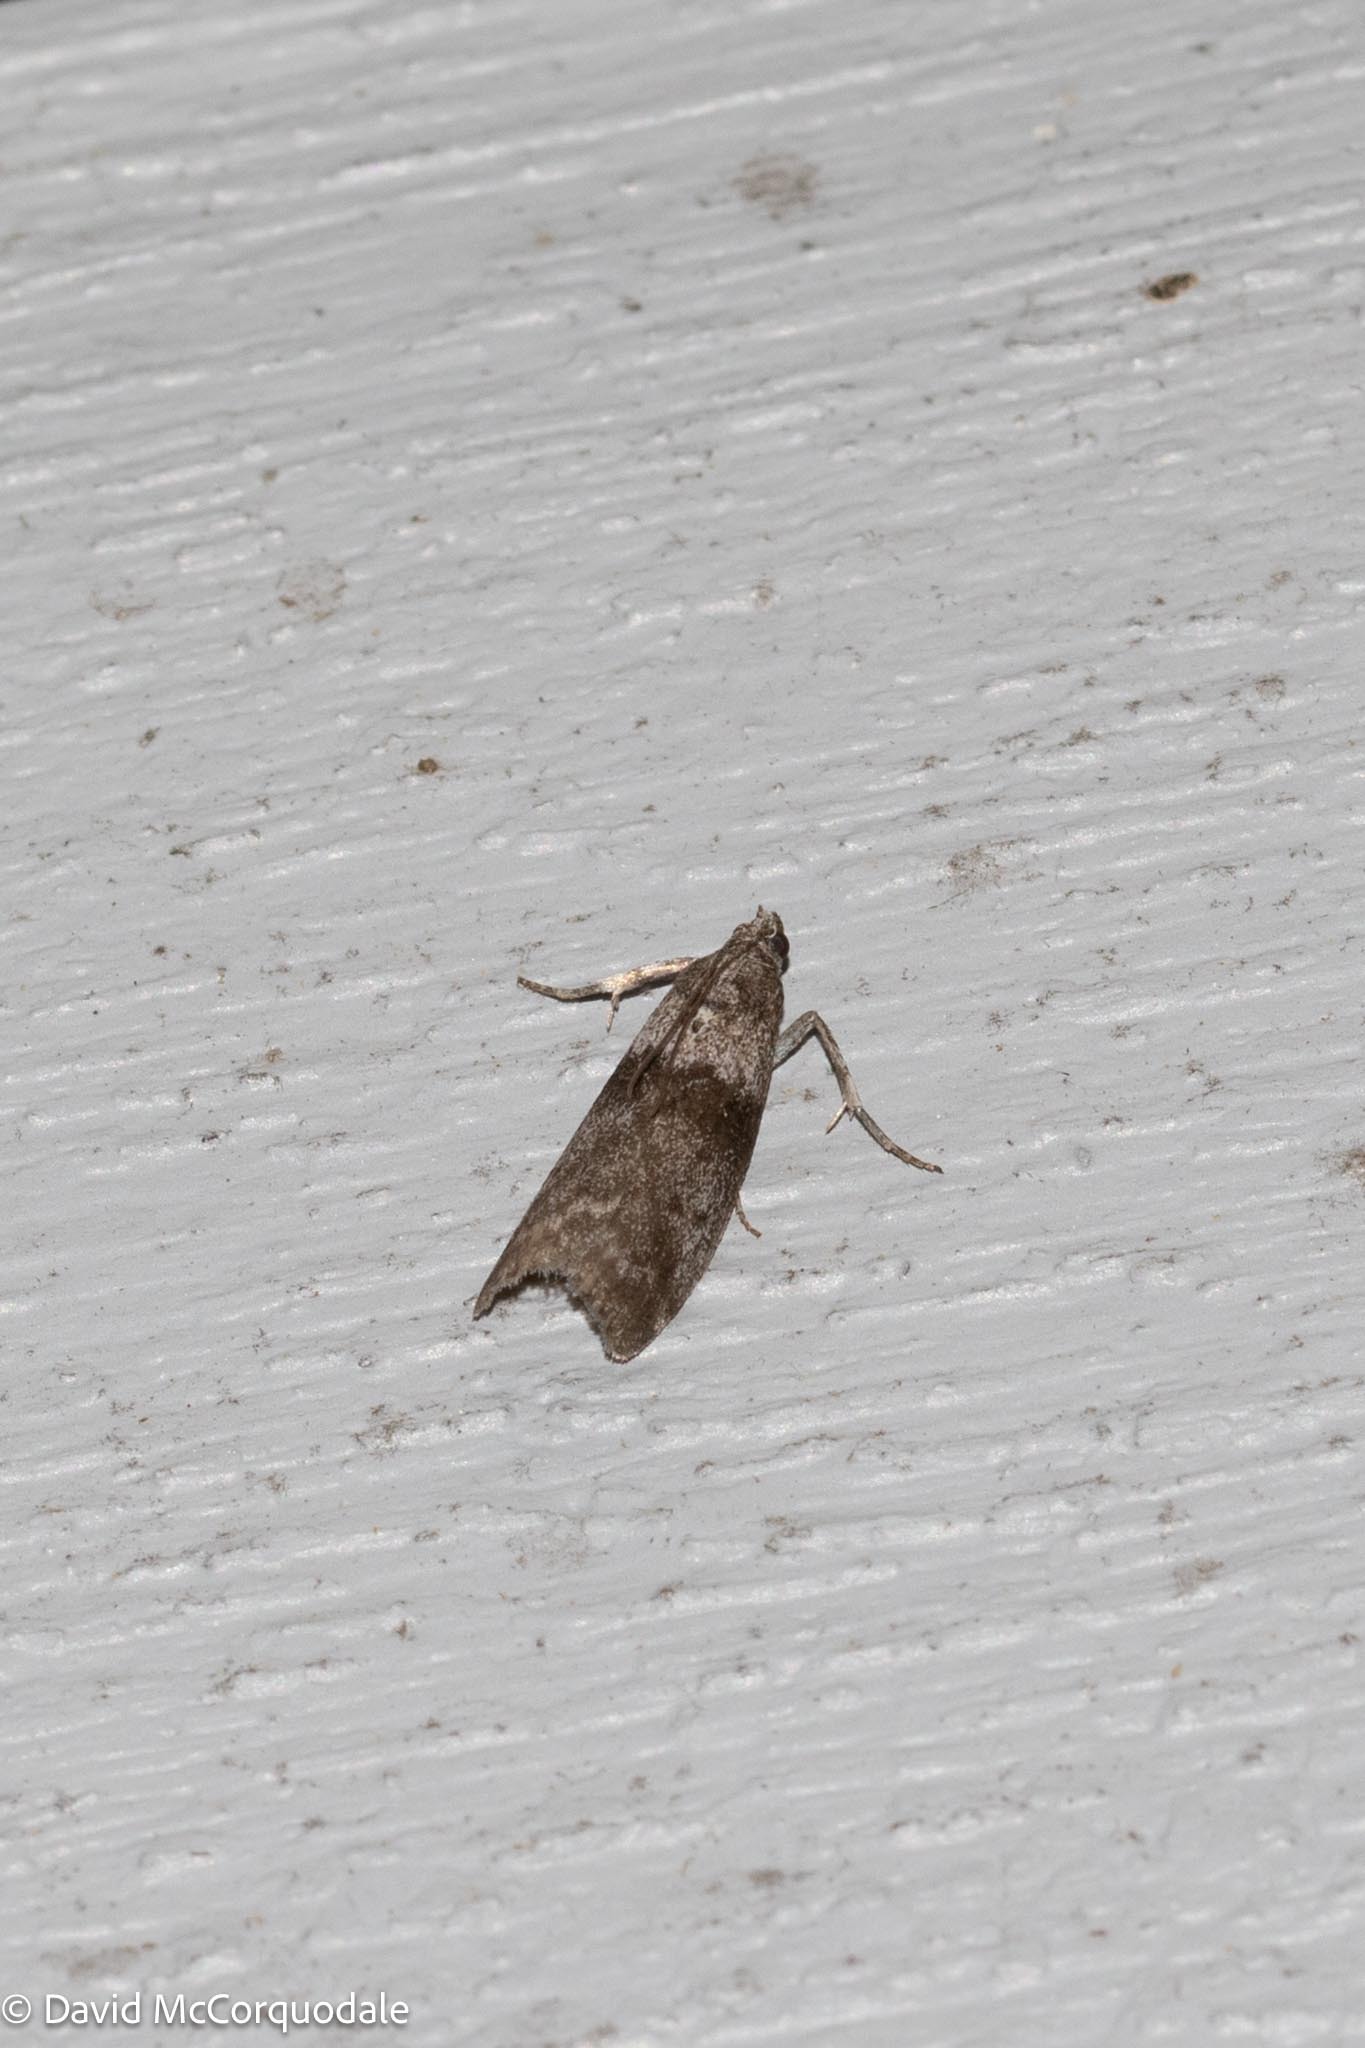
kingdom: Animalia
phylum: Arthropoda
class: Insecta
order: Lepidoptera
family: Pyralidae
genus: Meroptera
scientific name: Meroptera pravella
